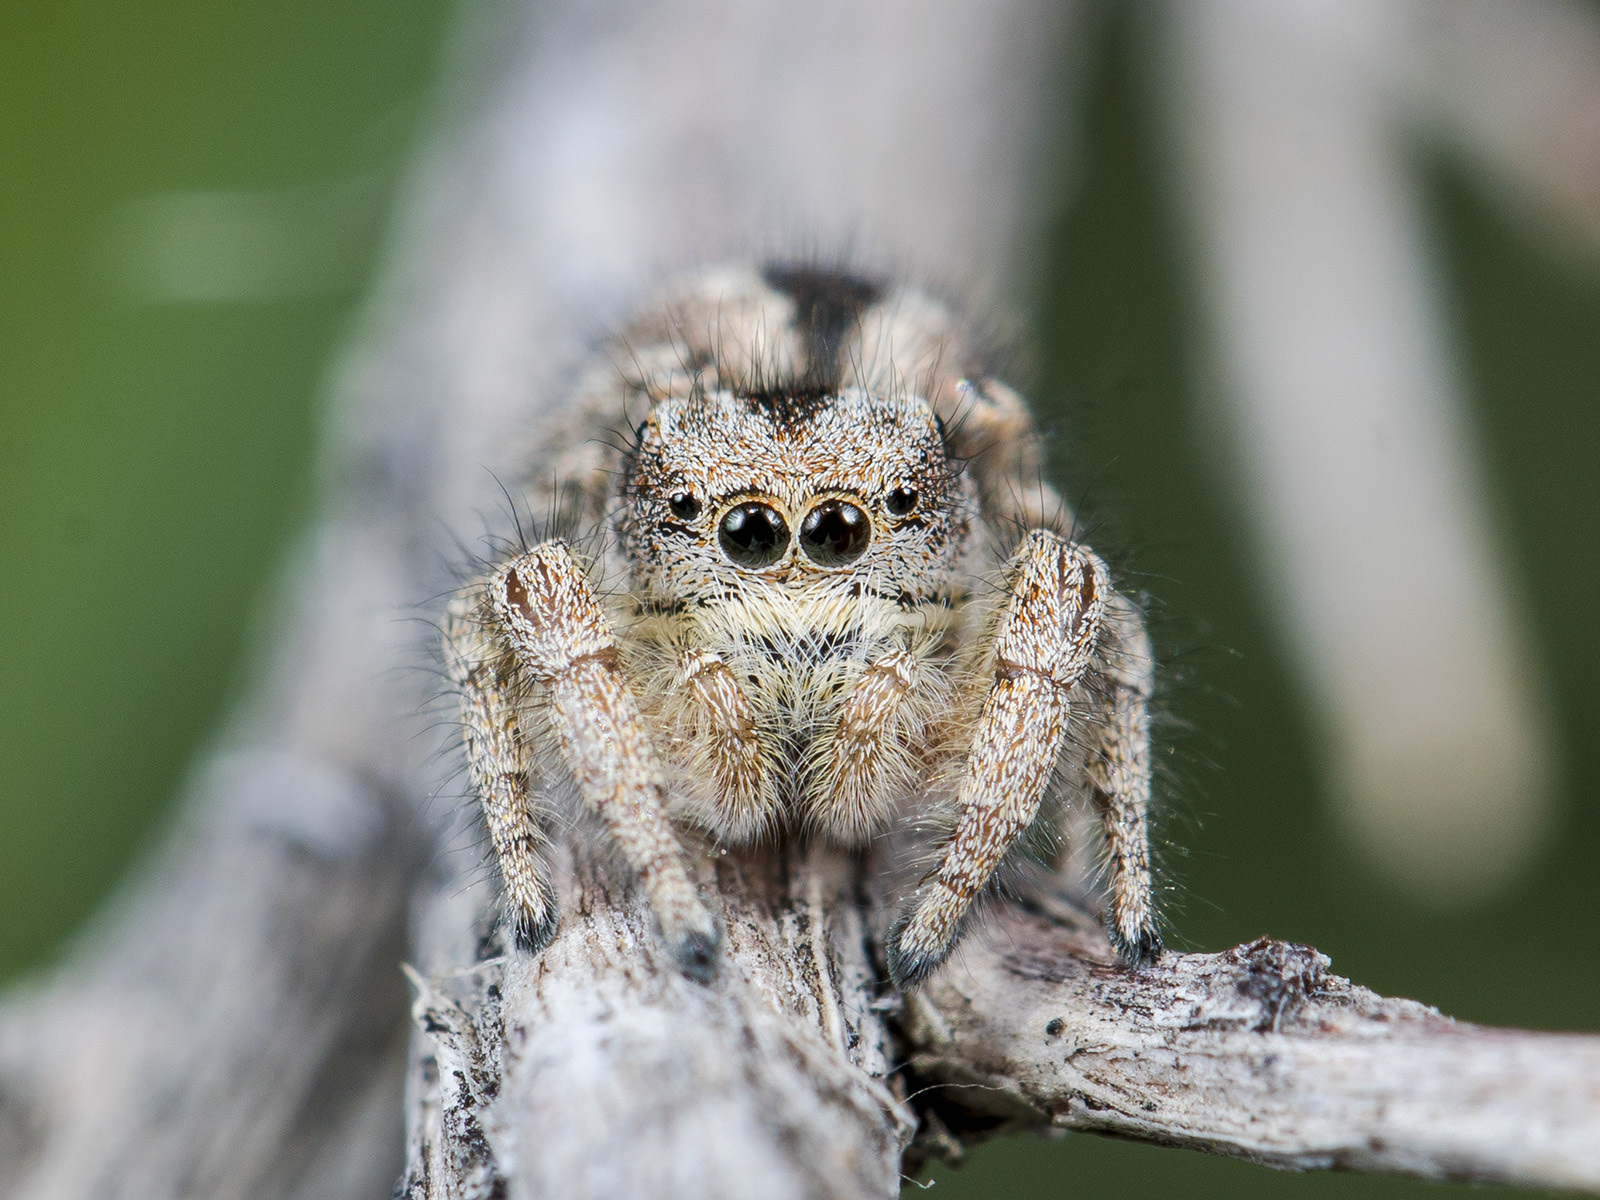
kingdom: Animalia
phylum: Arthropoda
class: Arachnida
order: Araneae
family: Salticidae
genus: Pseudomogrus
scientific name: Pseudomogrus vittatus
